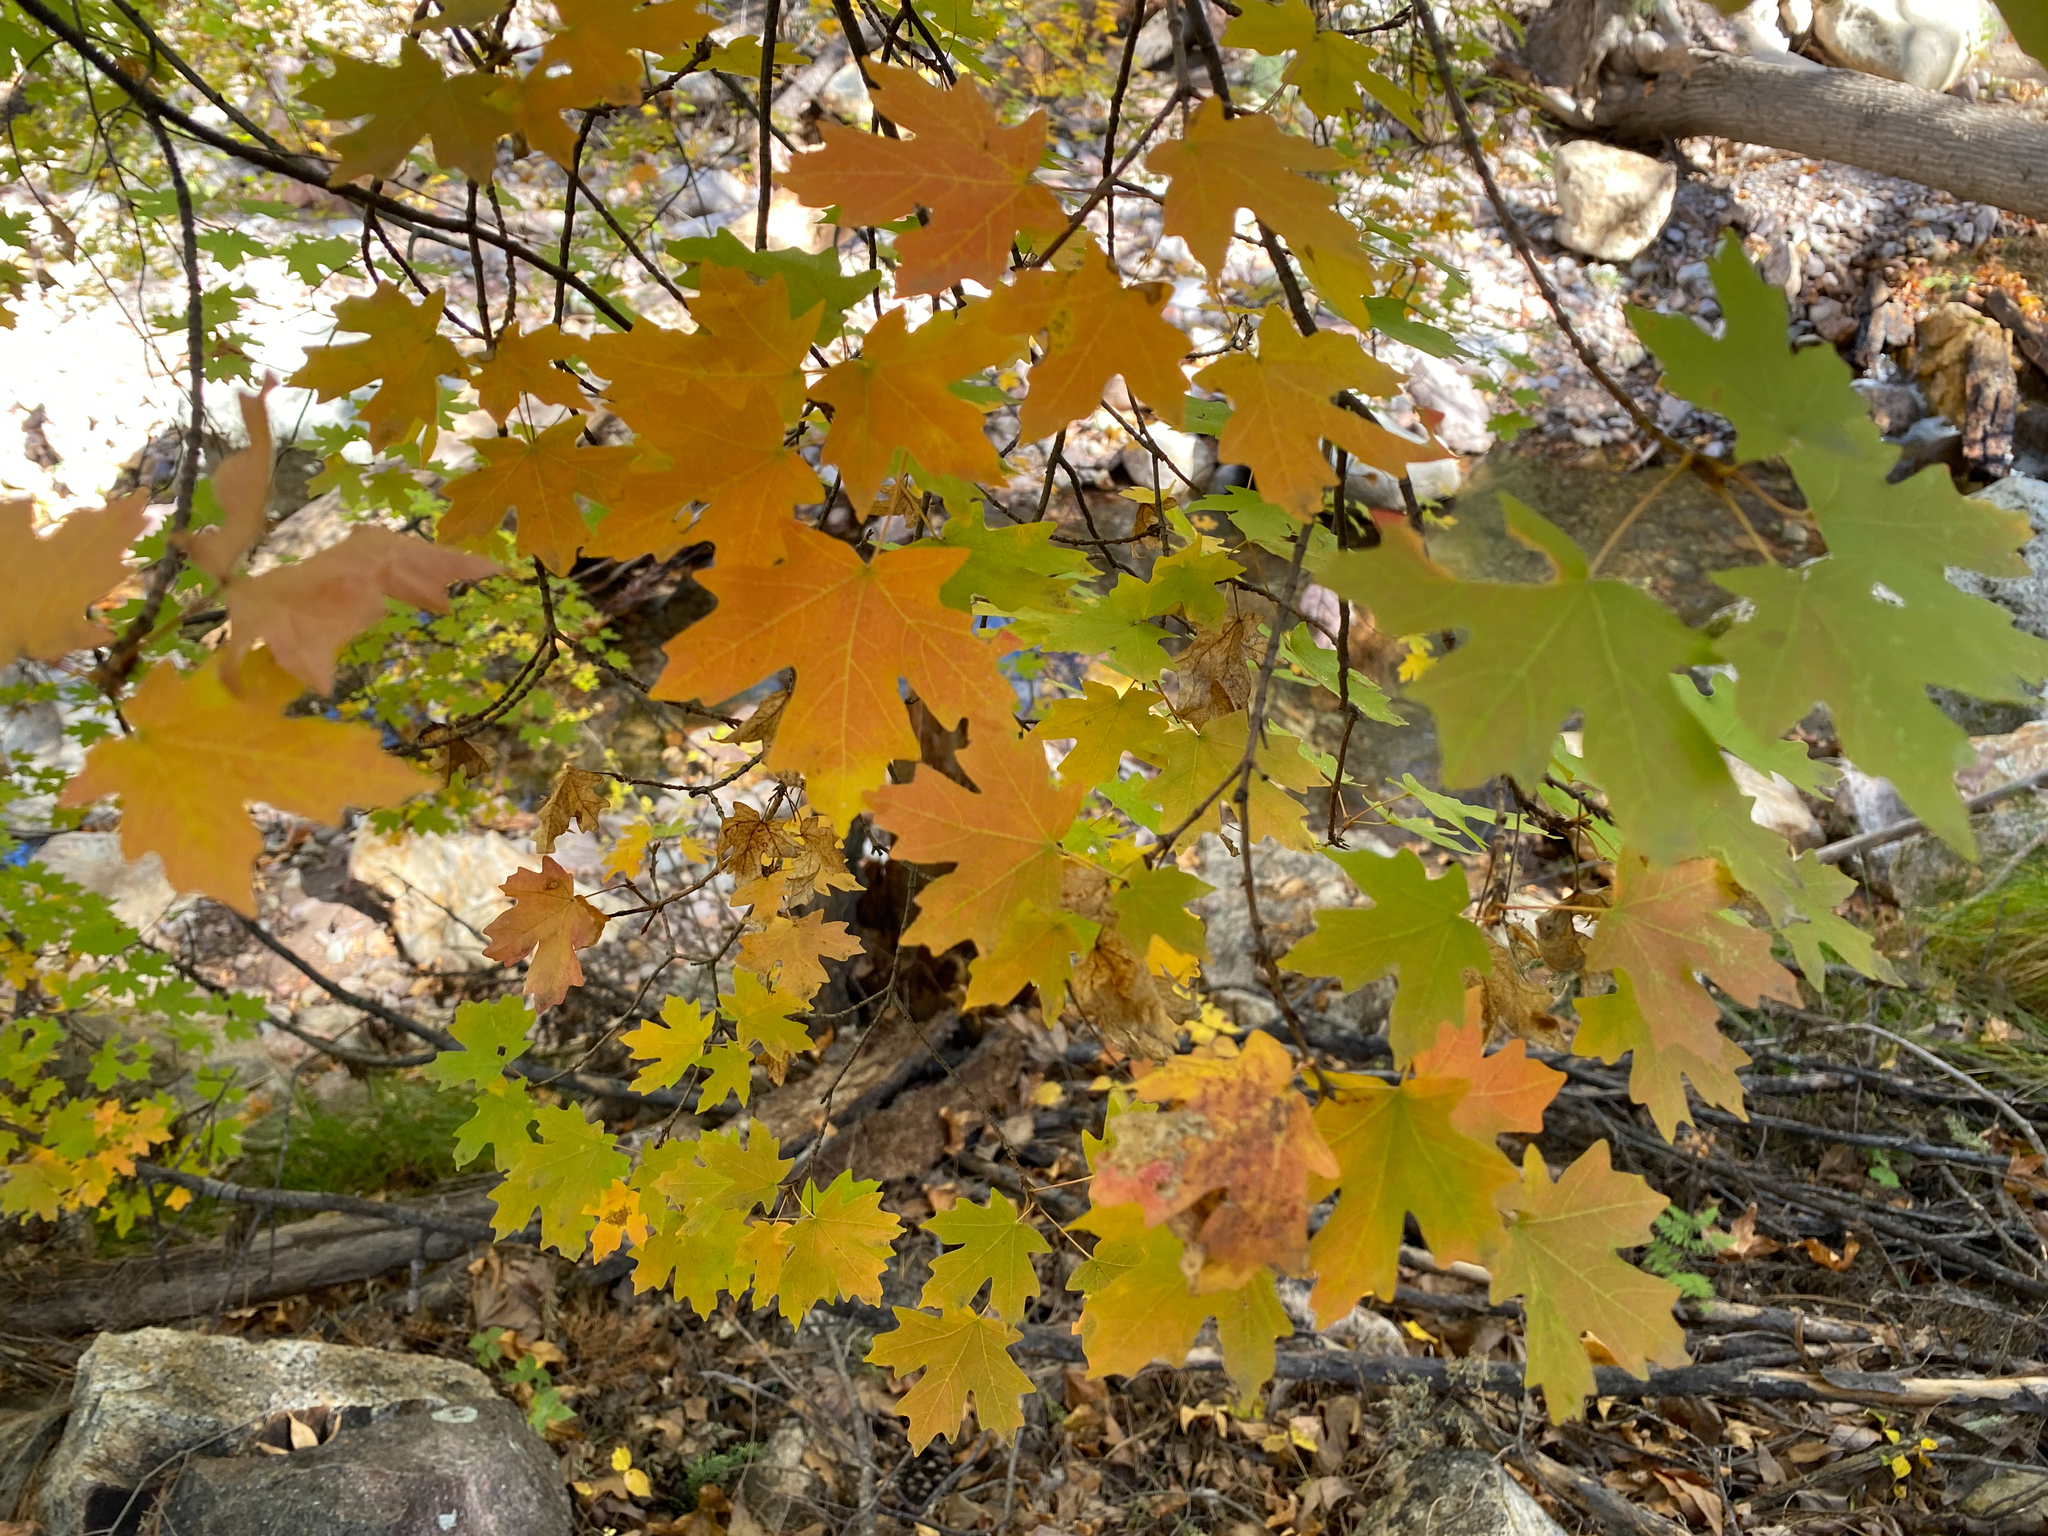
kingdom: Plantae
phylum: Tracheophyta
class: Magnoliopsida
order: Sapindales
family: Sapindaceae
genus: Acer
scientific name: Acer grandidentatum
